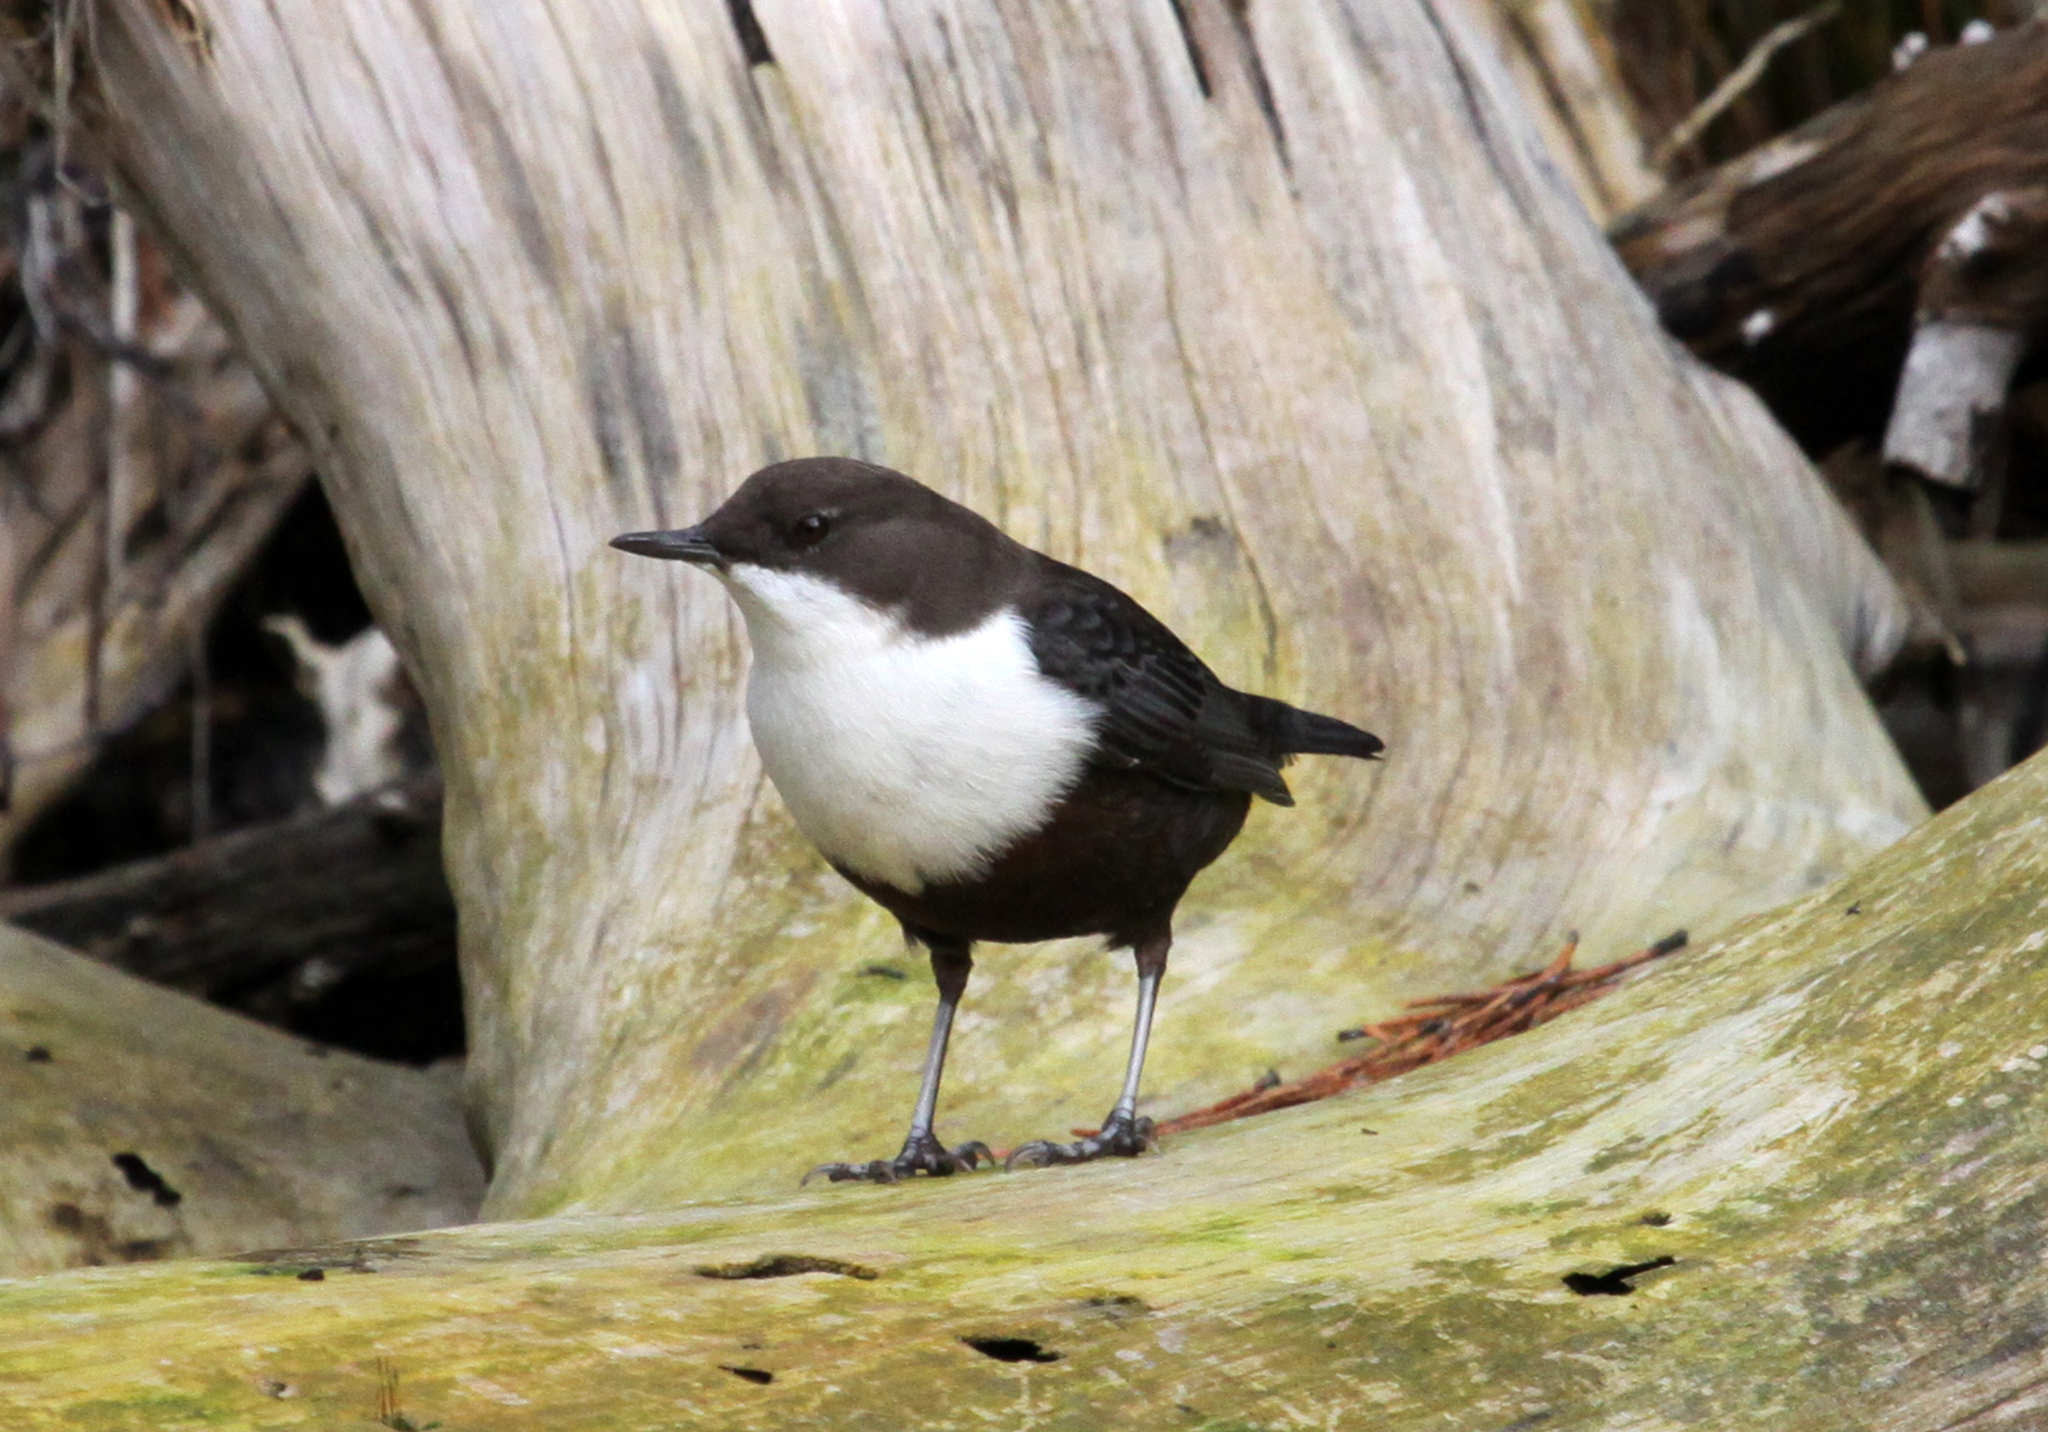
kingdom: Animalia
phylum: Chordata
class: Aves
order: Passeriformes
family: Cinclidae
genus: Cinclus
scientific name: Cinclus cinclus
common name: White-throated dipper
